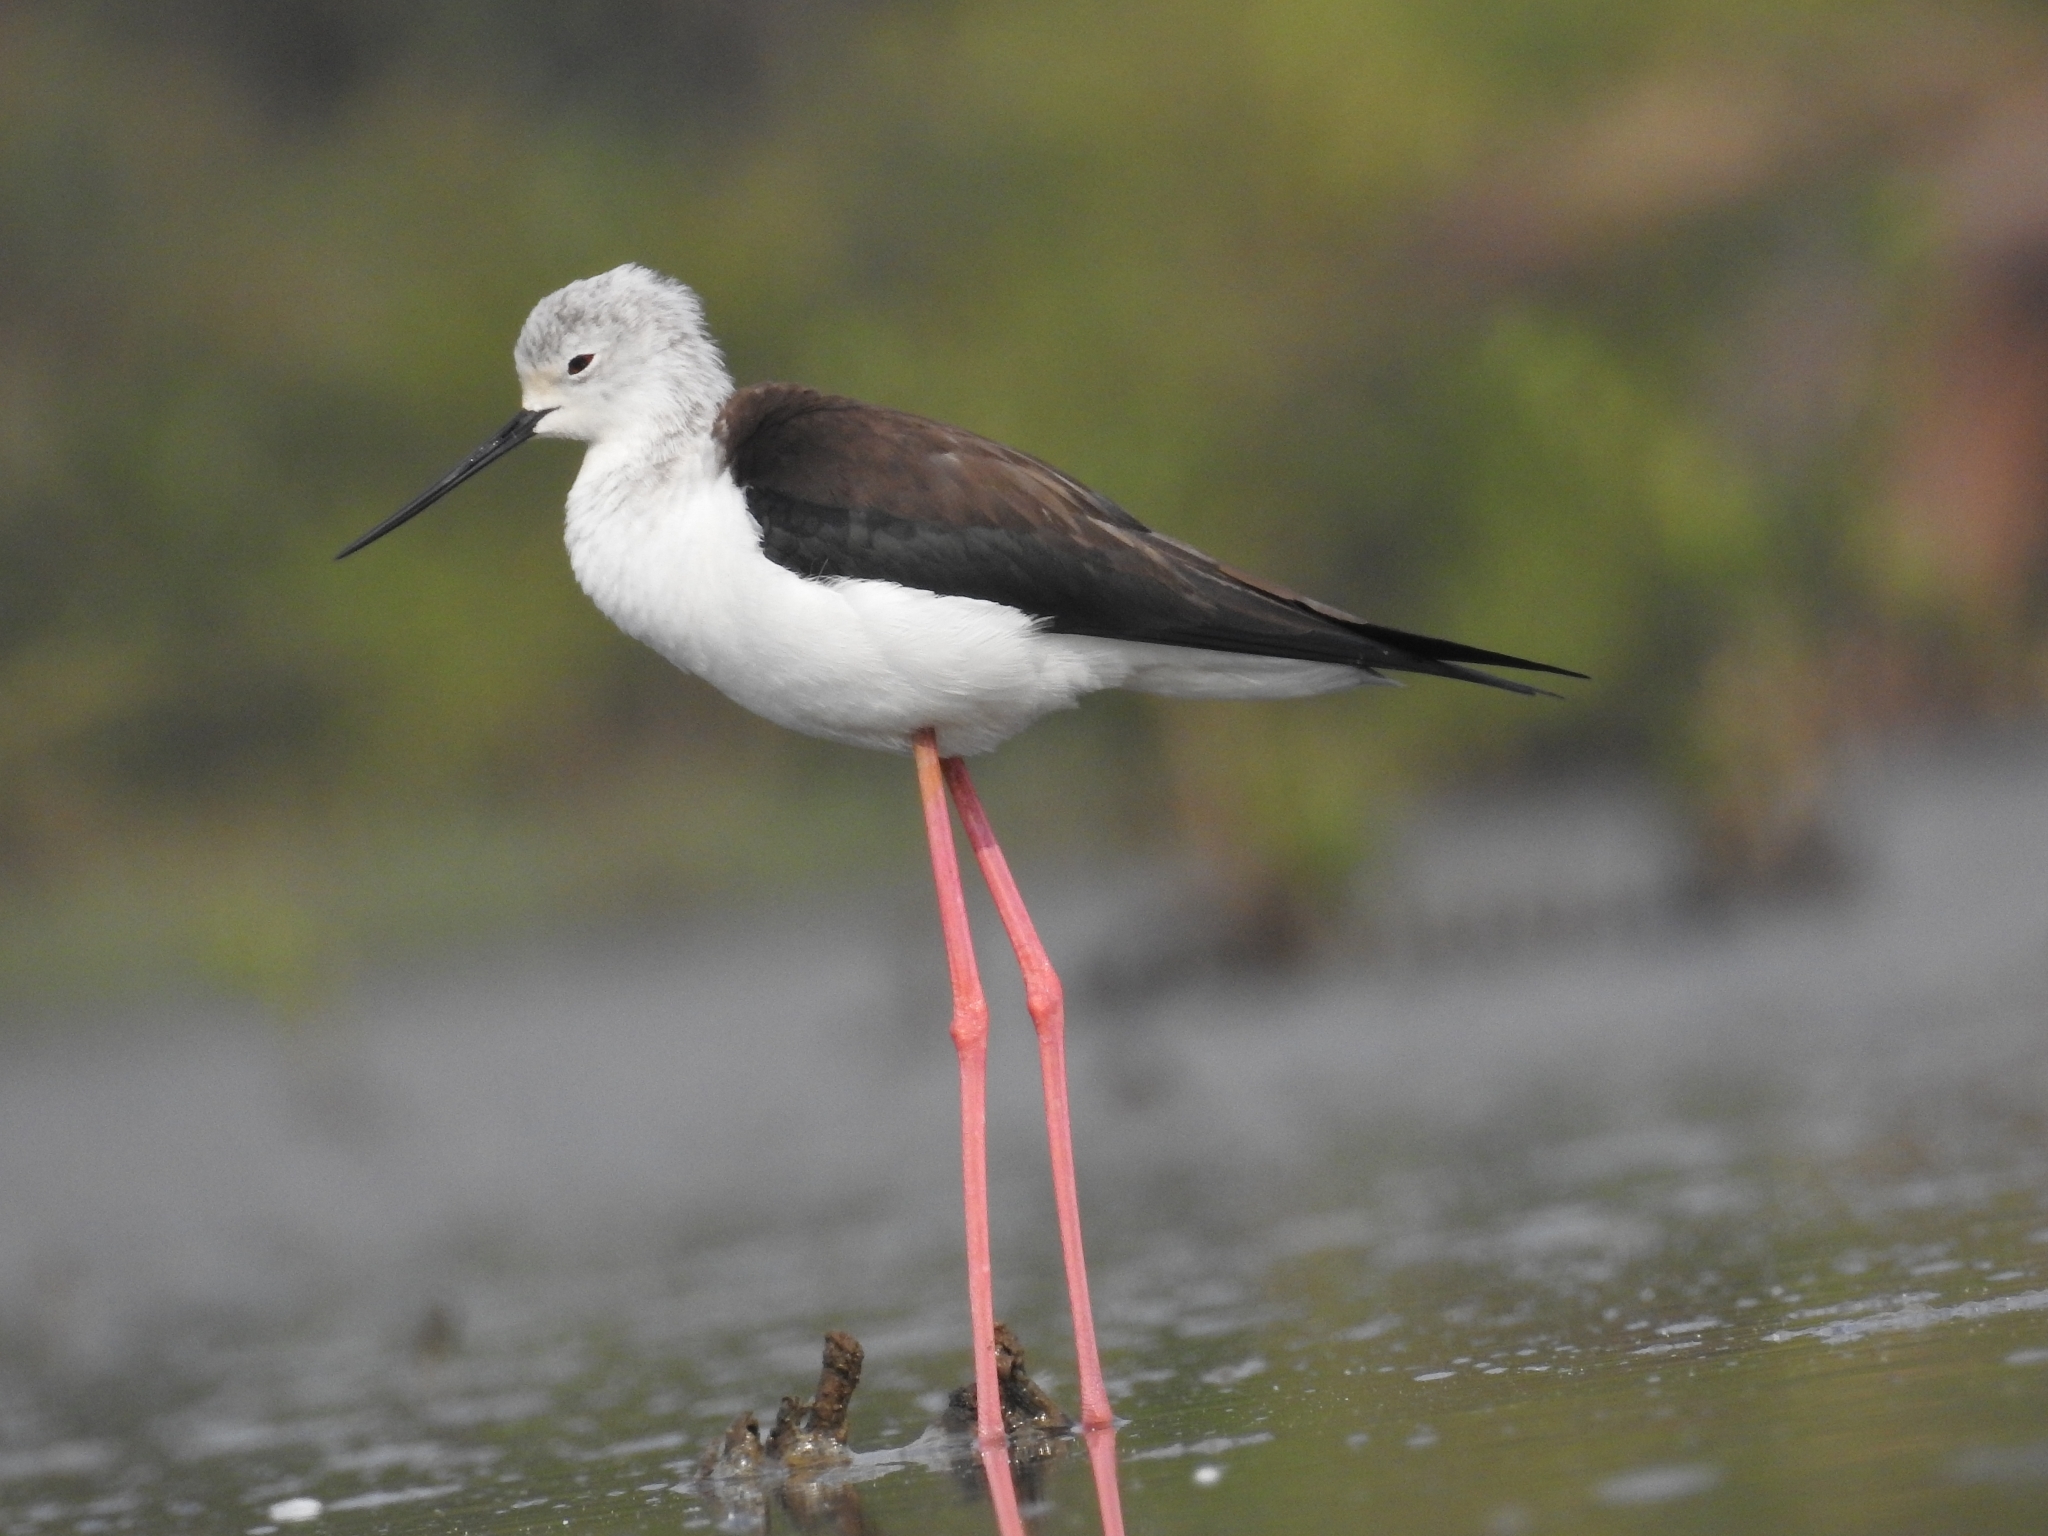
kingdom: Animalia
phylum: Chordata
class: Aves
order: Charadriiformes
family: Recurvirostridae
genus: Himantopus
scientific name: Himantopus himantopus
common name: Black-winged stilt
